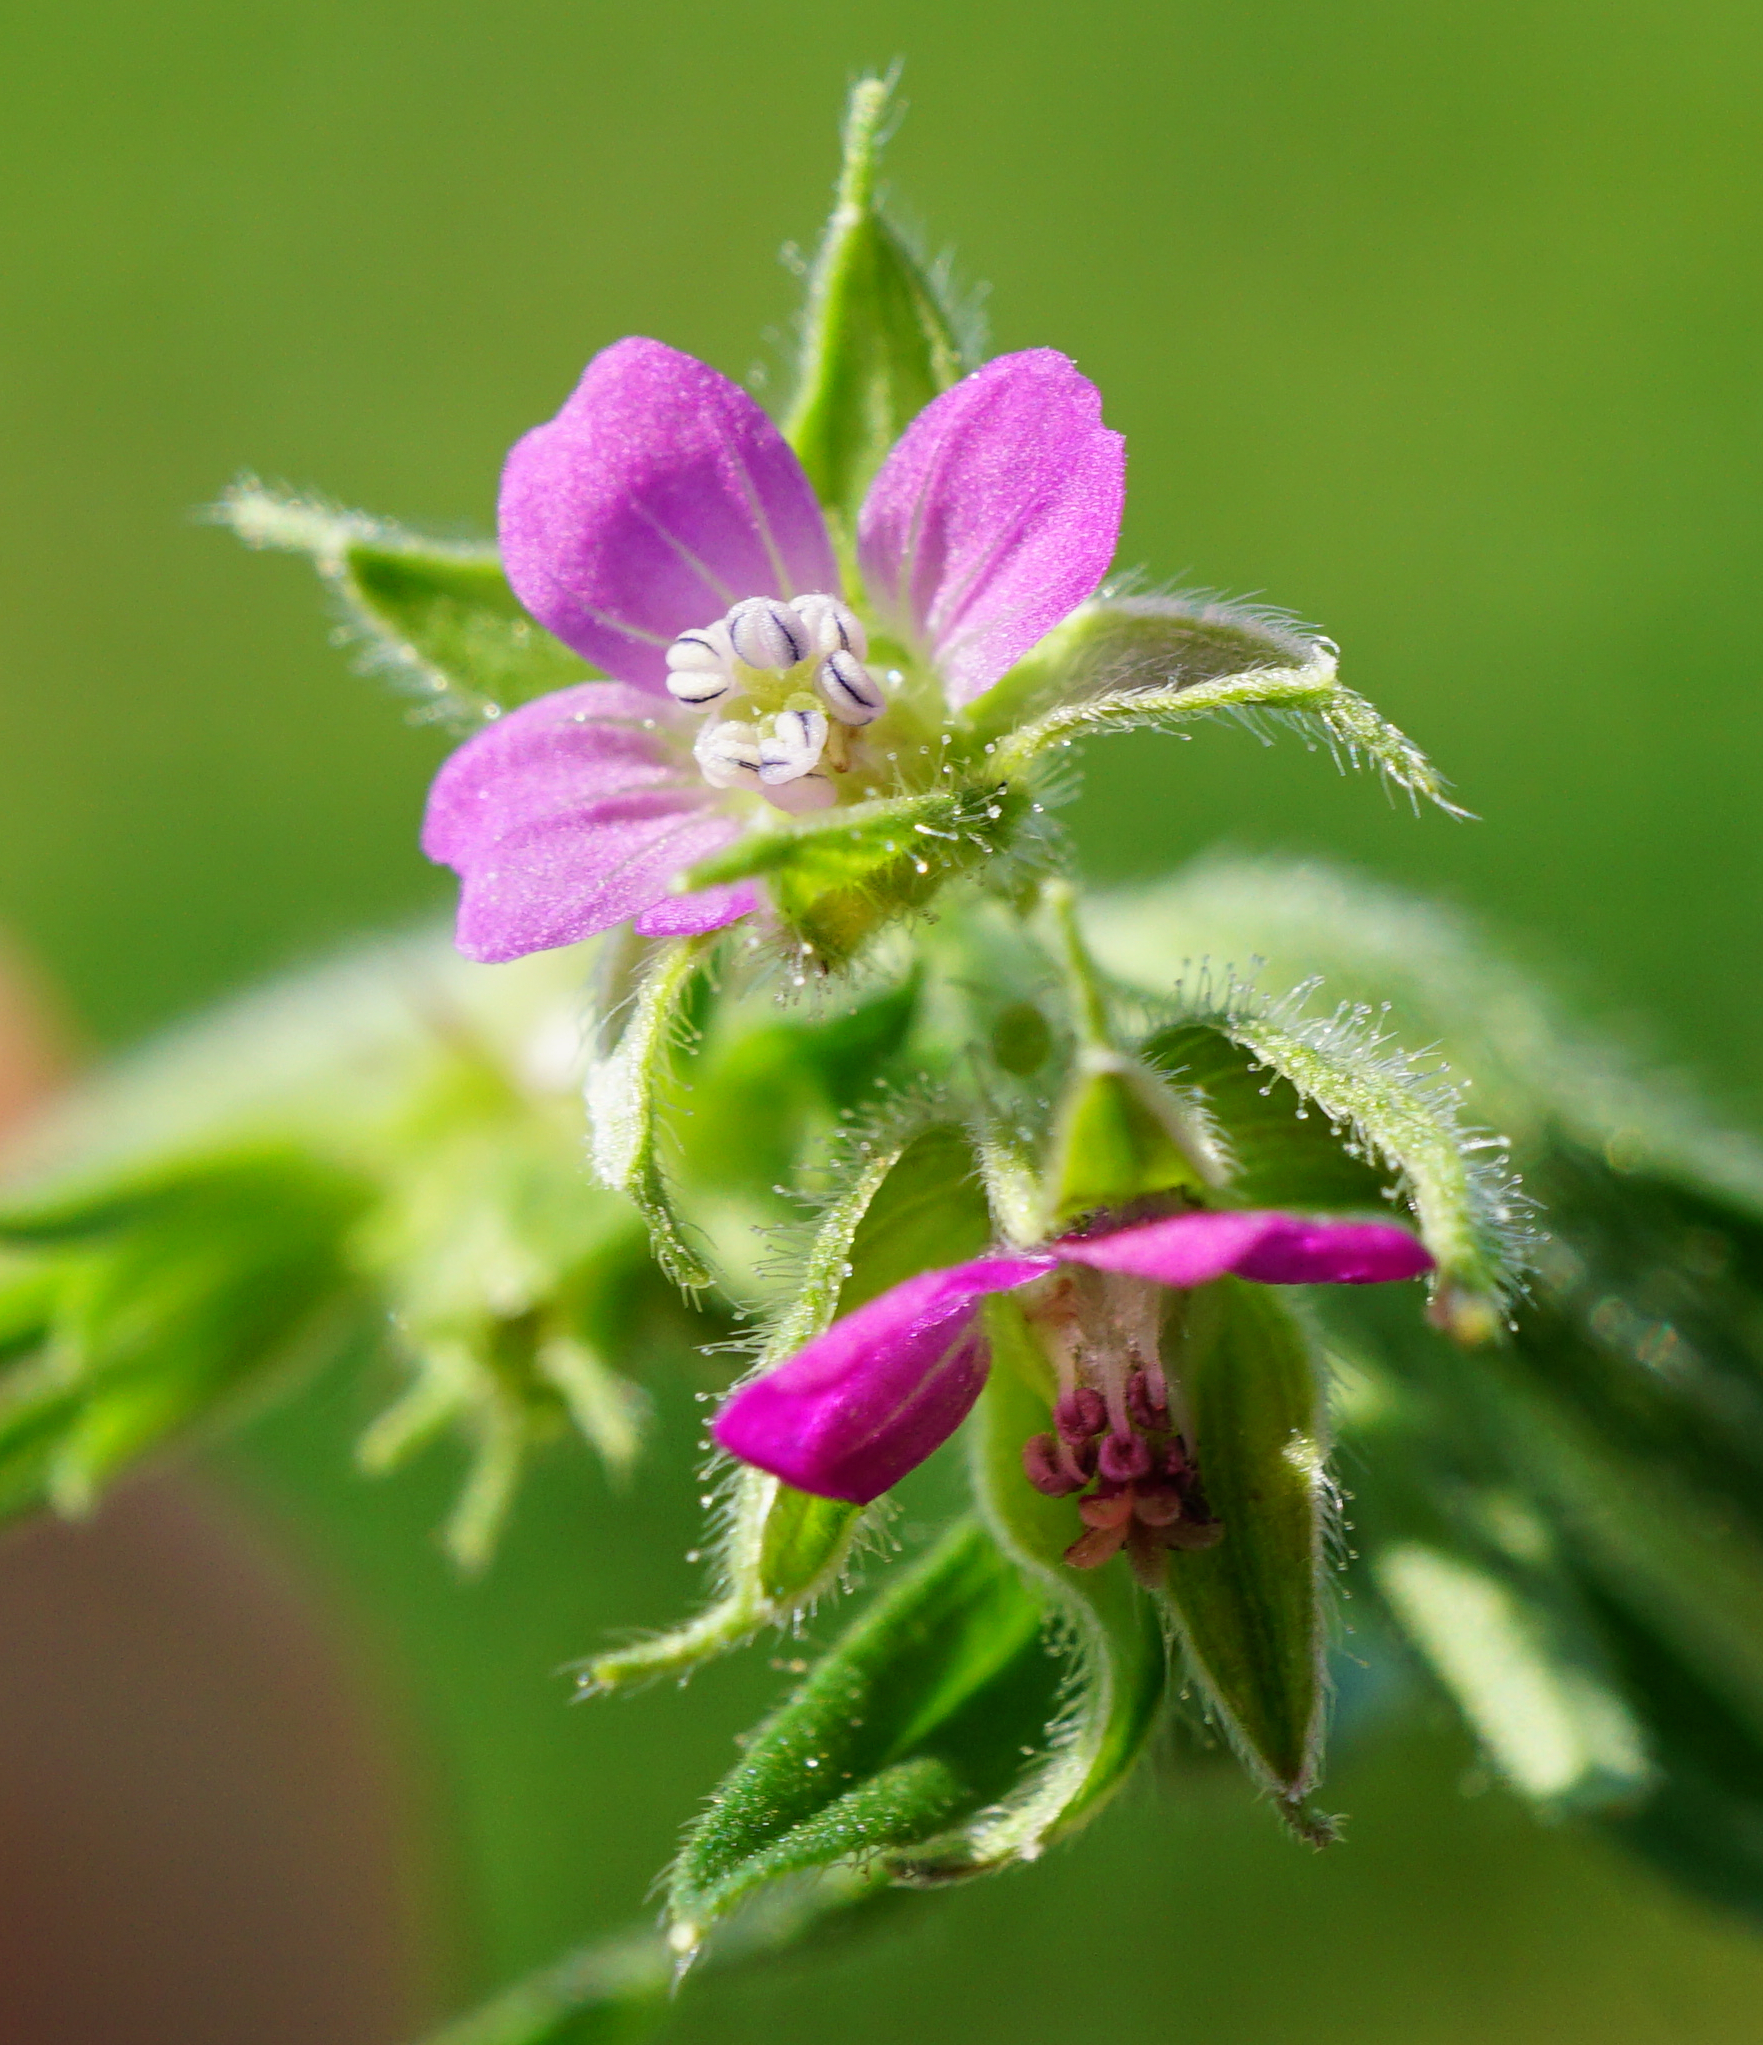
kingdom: Plantae
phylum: Tracheophyta
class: Magnoliopsida
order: Geraniales
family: Geraniaceae
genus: Geranium
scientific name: Geranium dissectum
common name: Cut-leaved crane's-bill
